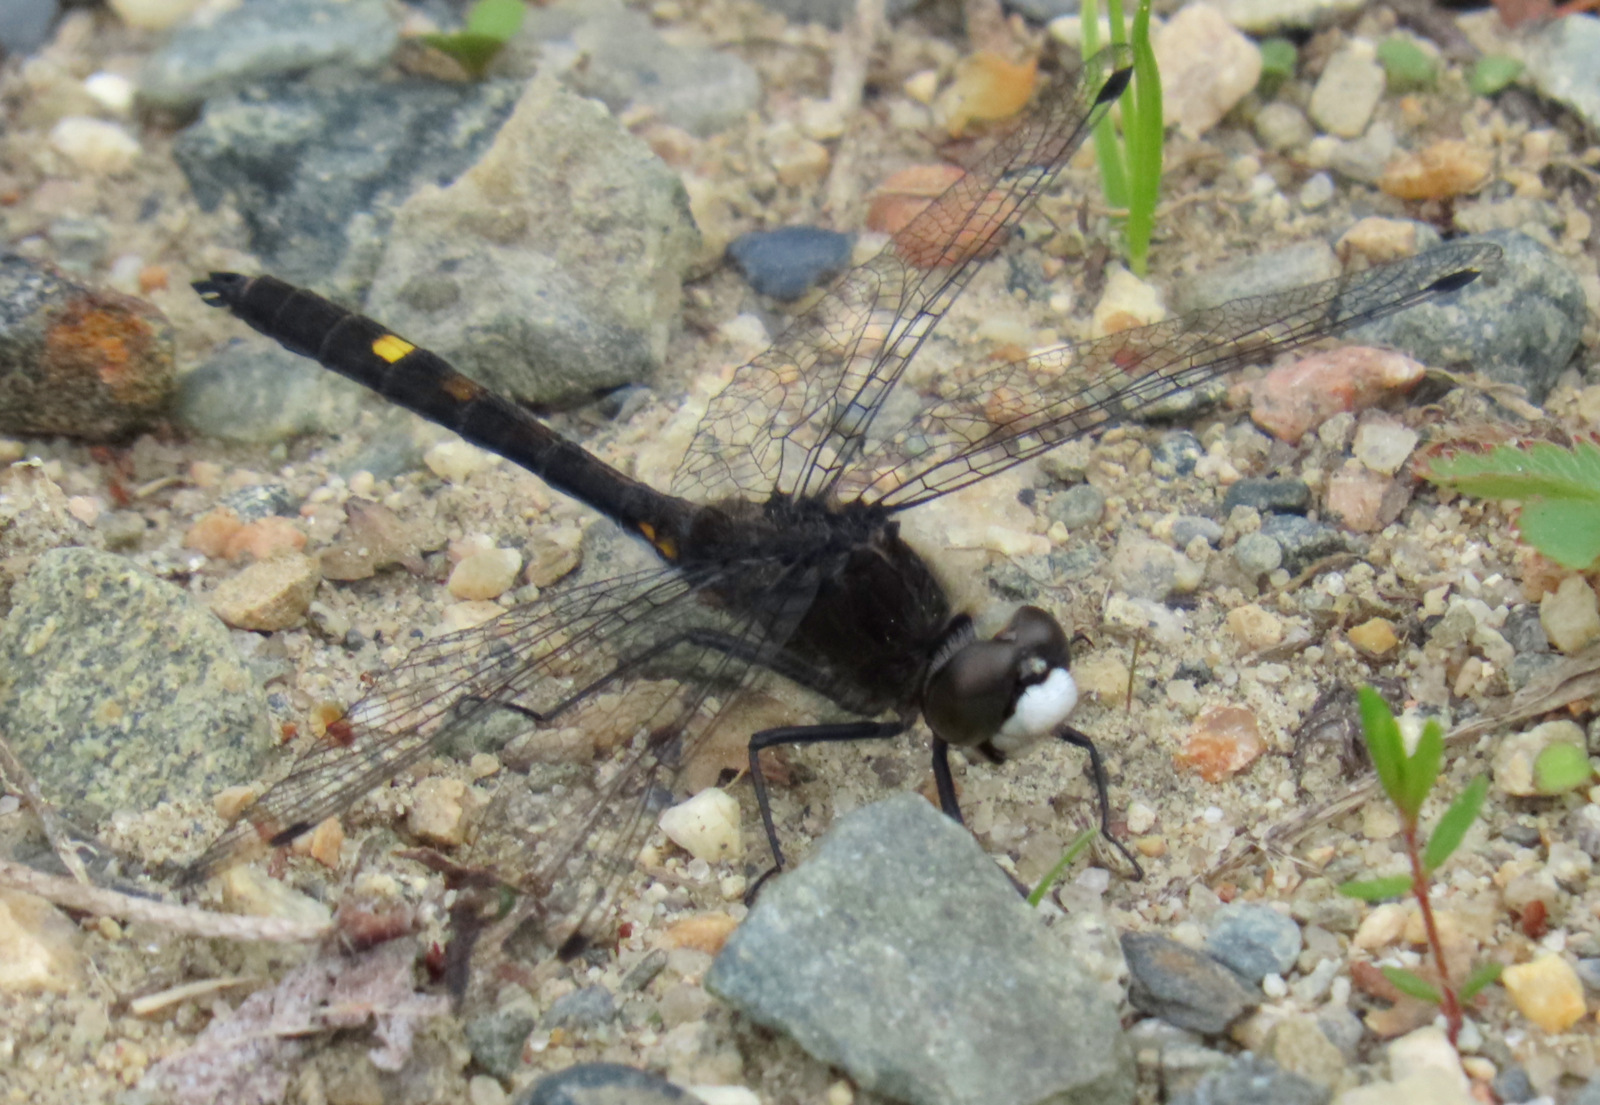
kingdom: Animalia
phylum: Arthropoda
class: Insecta
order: Odonata
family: Libellulidae
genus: Leucorrhinia
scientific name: Leucorrhinia intacta
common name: Dot-tailed whiteface
